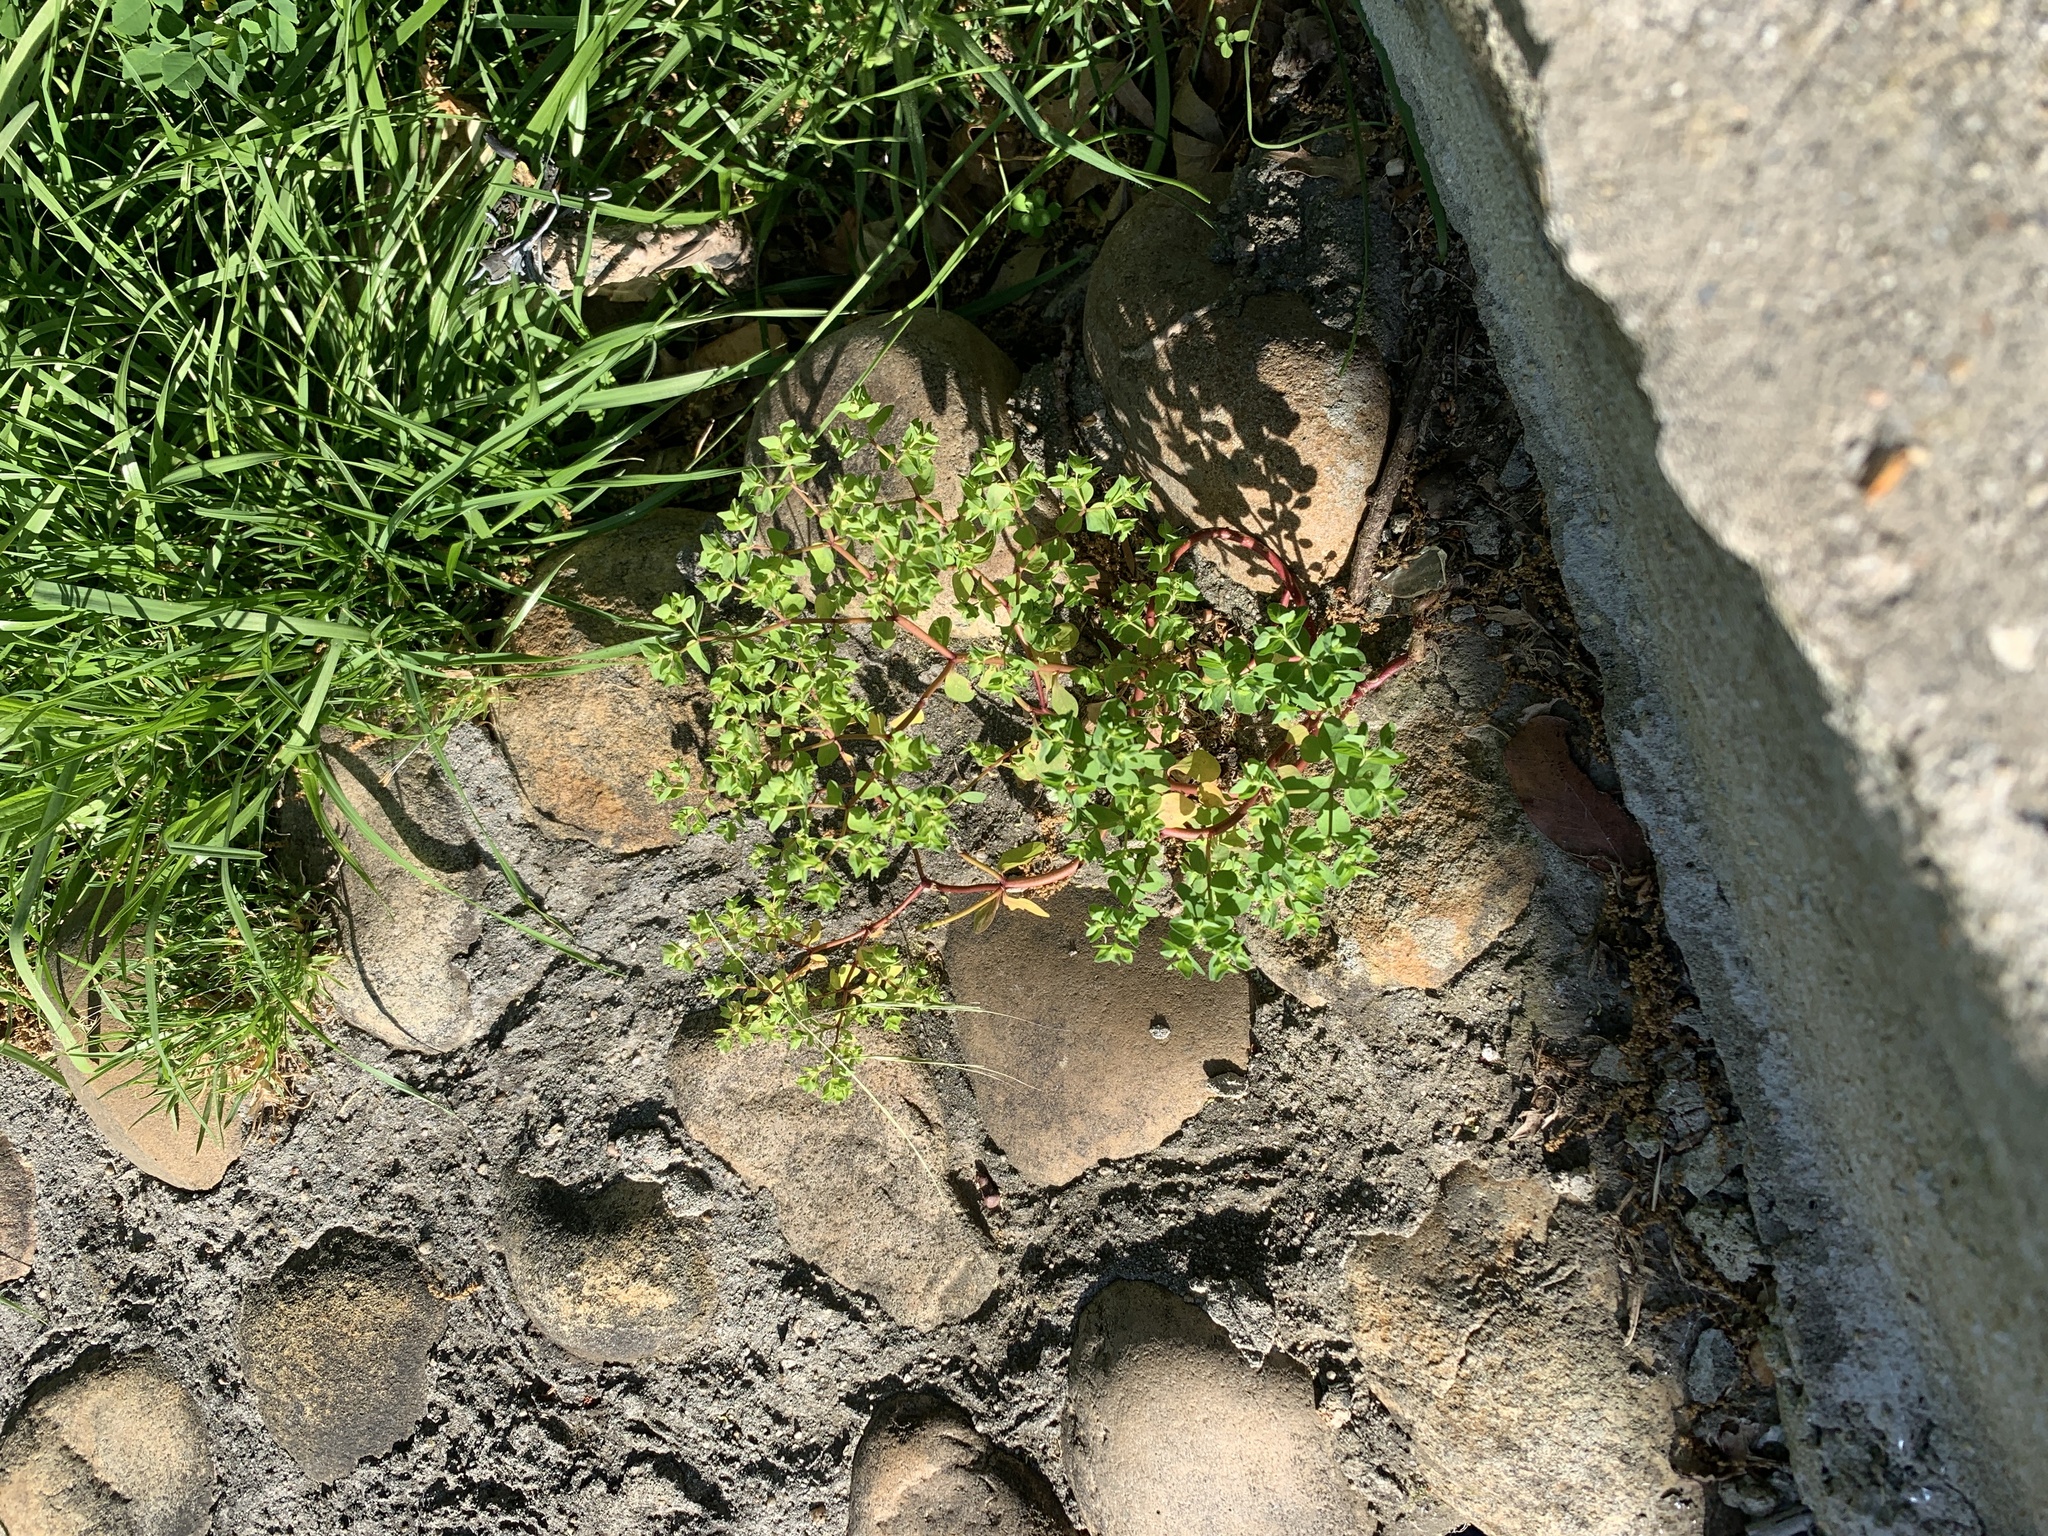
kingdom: Plantae
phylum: Tracheophyta
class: Magnoliopsida
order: Malpighiales
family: Euphorbiaceae
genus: Euphorbia
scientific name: Euphorbia peplus
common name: Petty spurge
